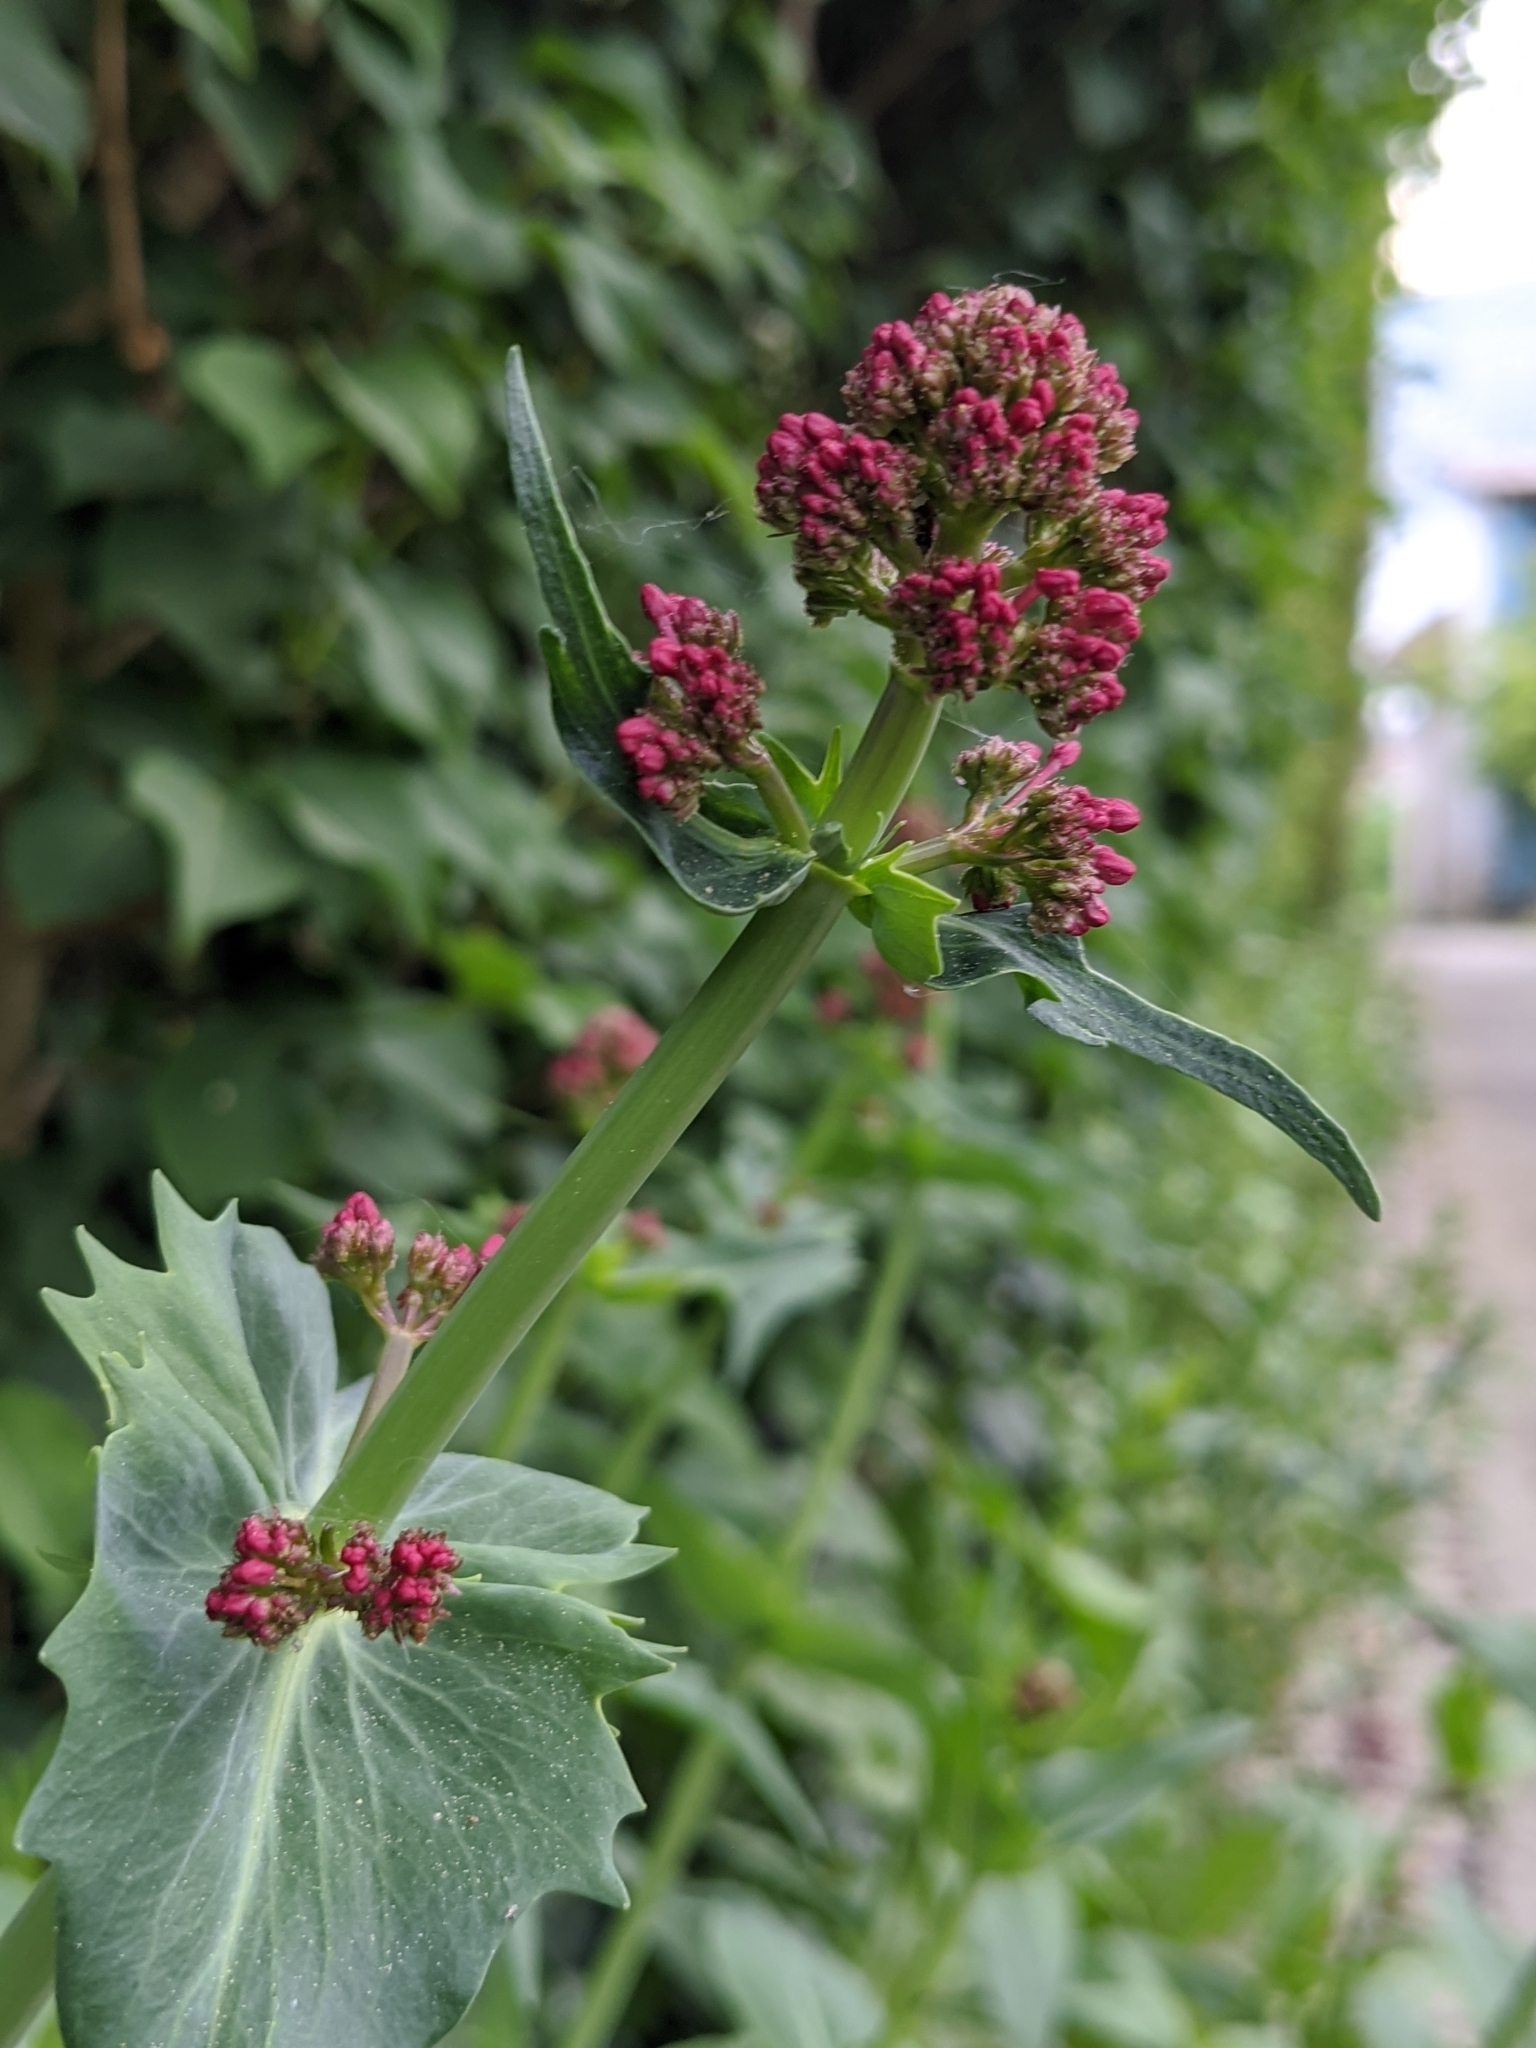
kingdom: Plantae
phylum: Tracheophyta
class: Magnoliopsida
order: Dipsacales
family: Caprifoliaceae
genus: Centranthus
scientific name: Centranthus ruber
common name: Red valerian
